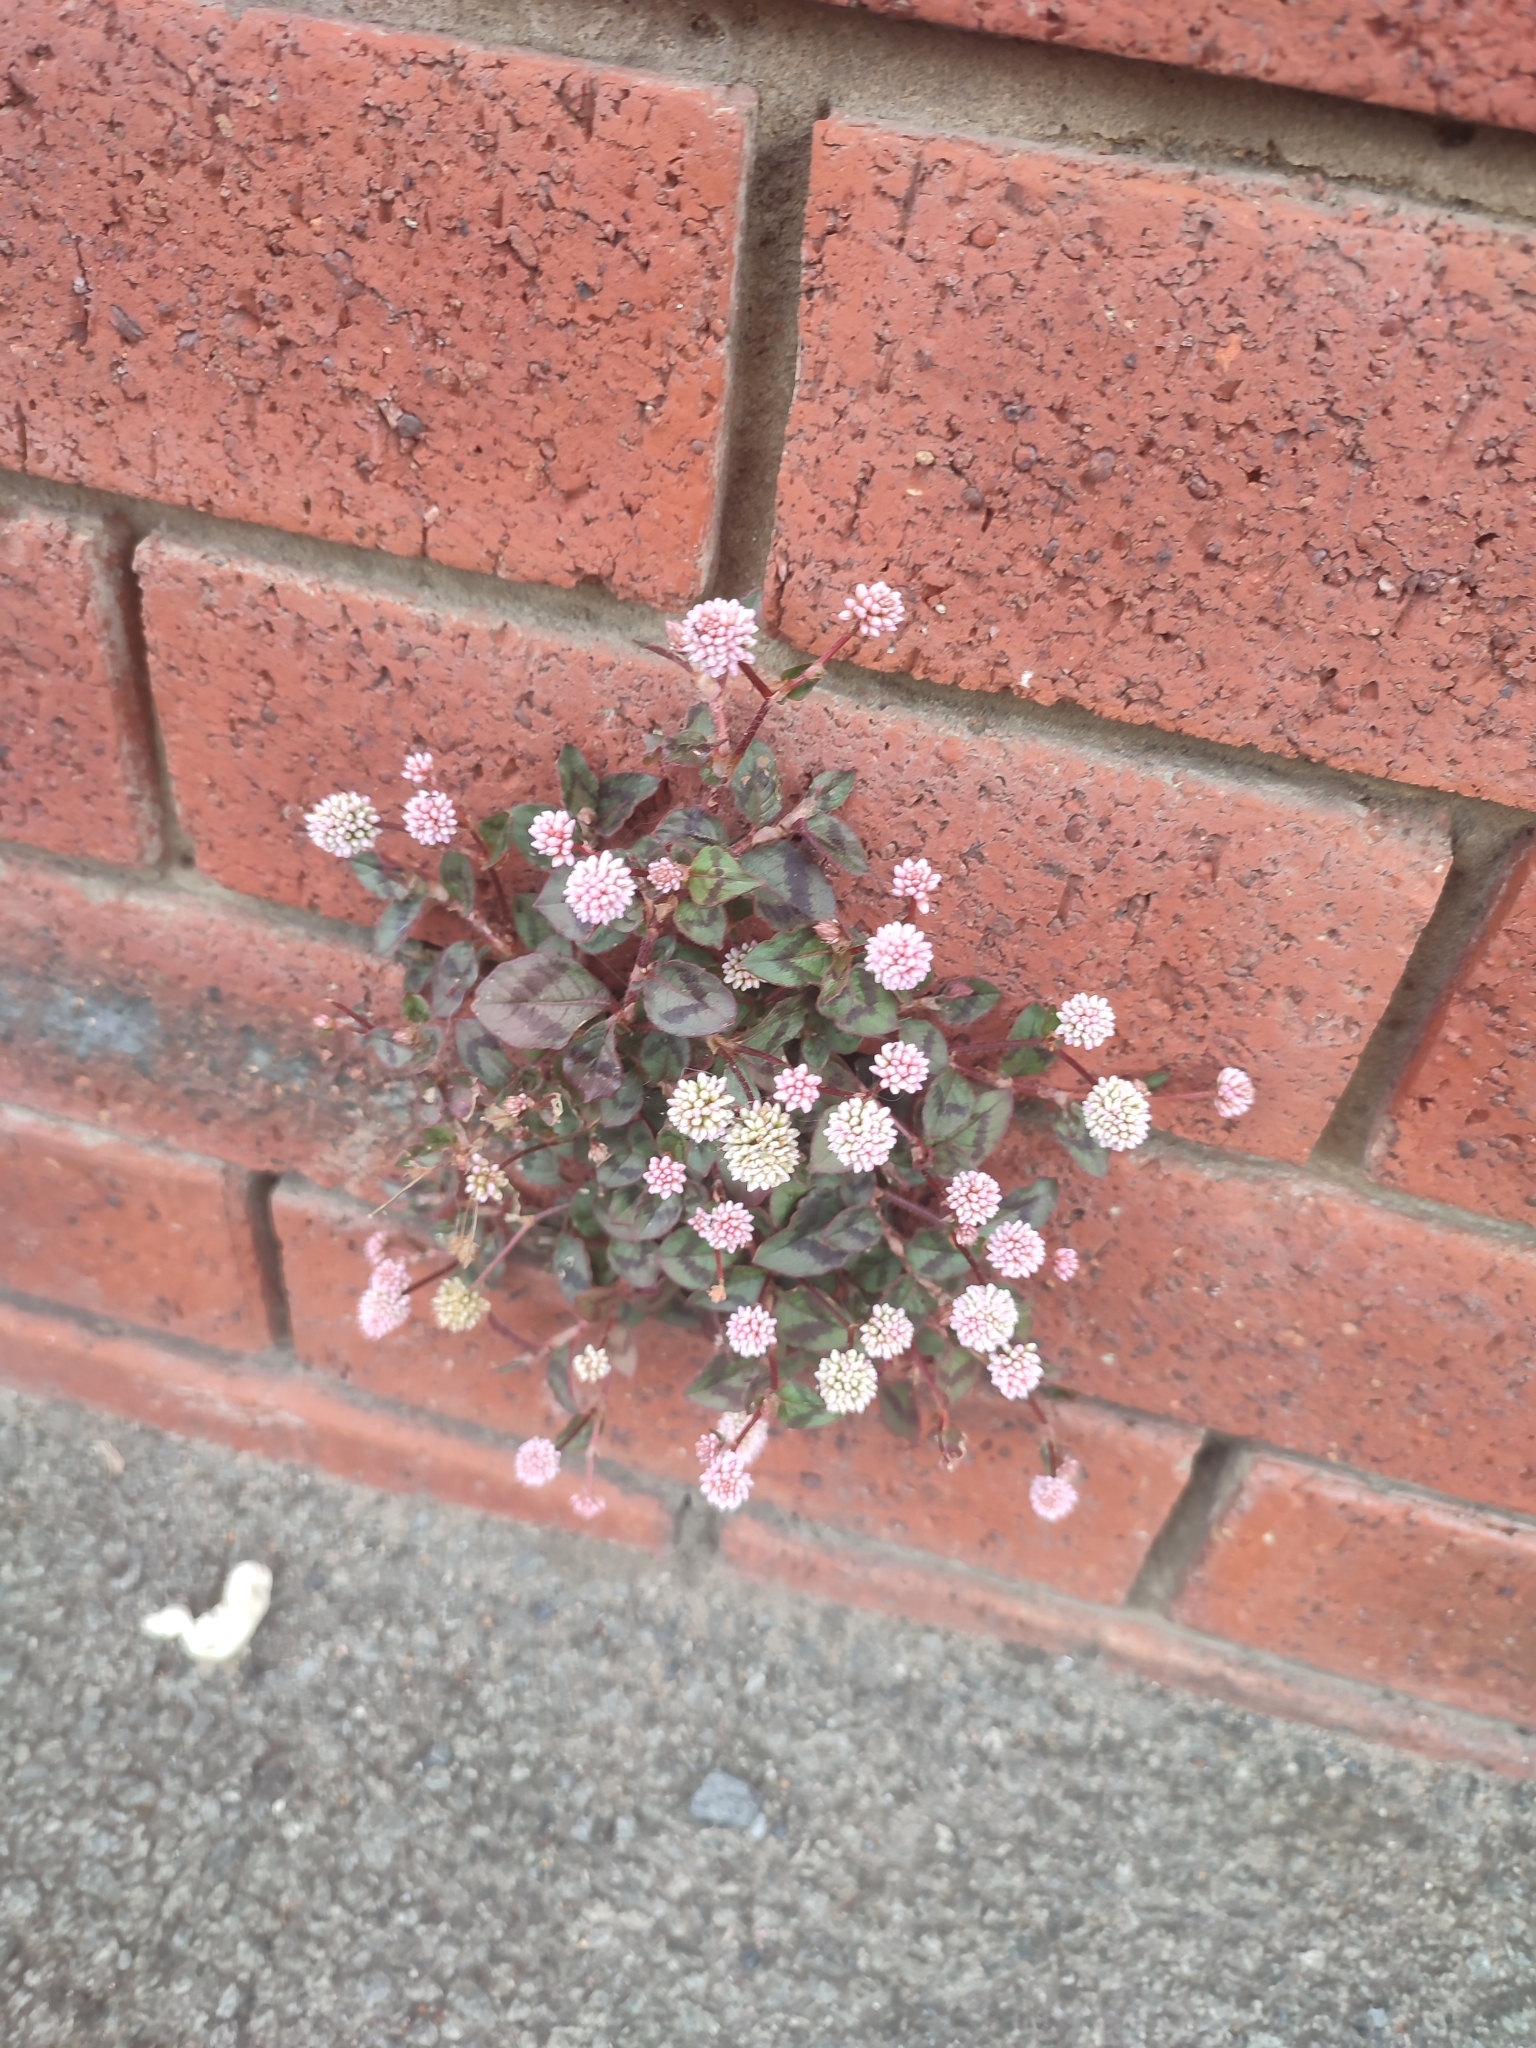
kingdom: Plantae
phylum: Tracheophyta
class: Magnoliopsida
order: Caryophyllales
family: Polygonaceae
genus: Persicaria
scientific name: Persicaria capitata
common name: Pinkhead smartweed
